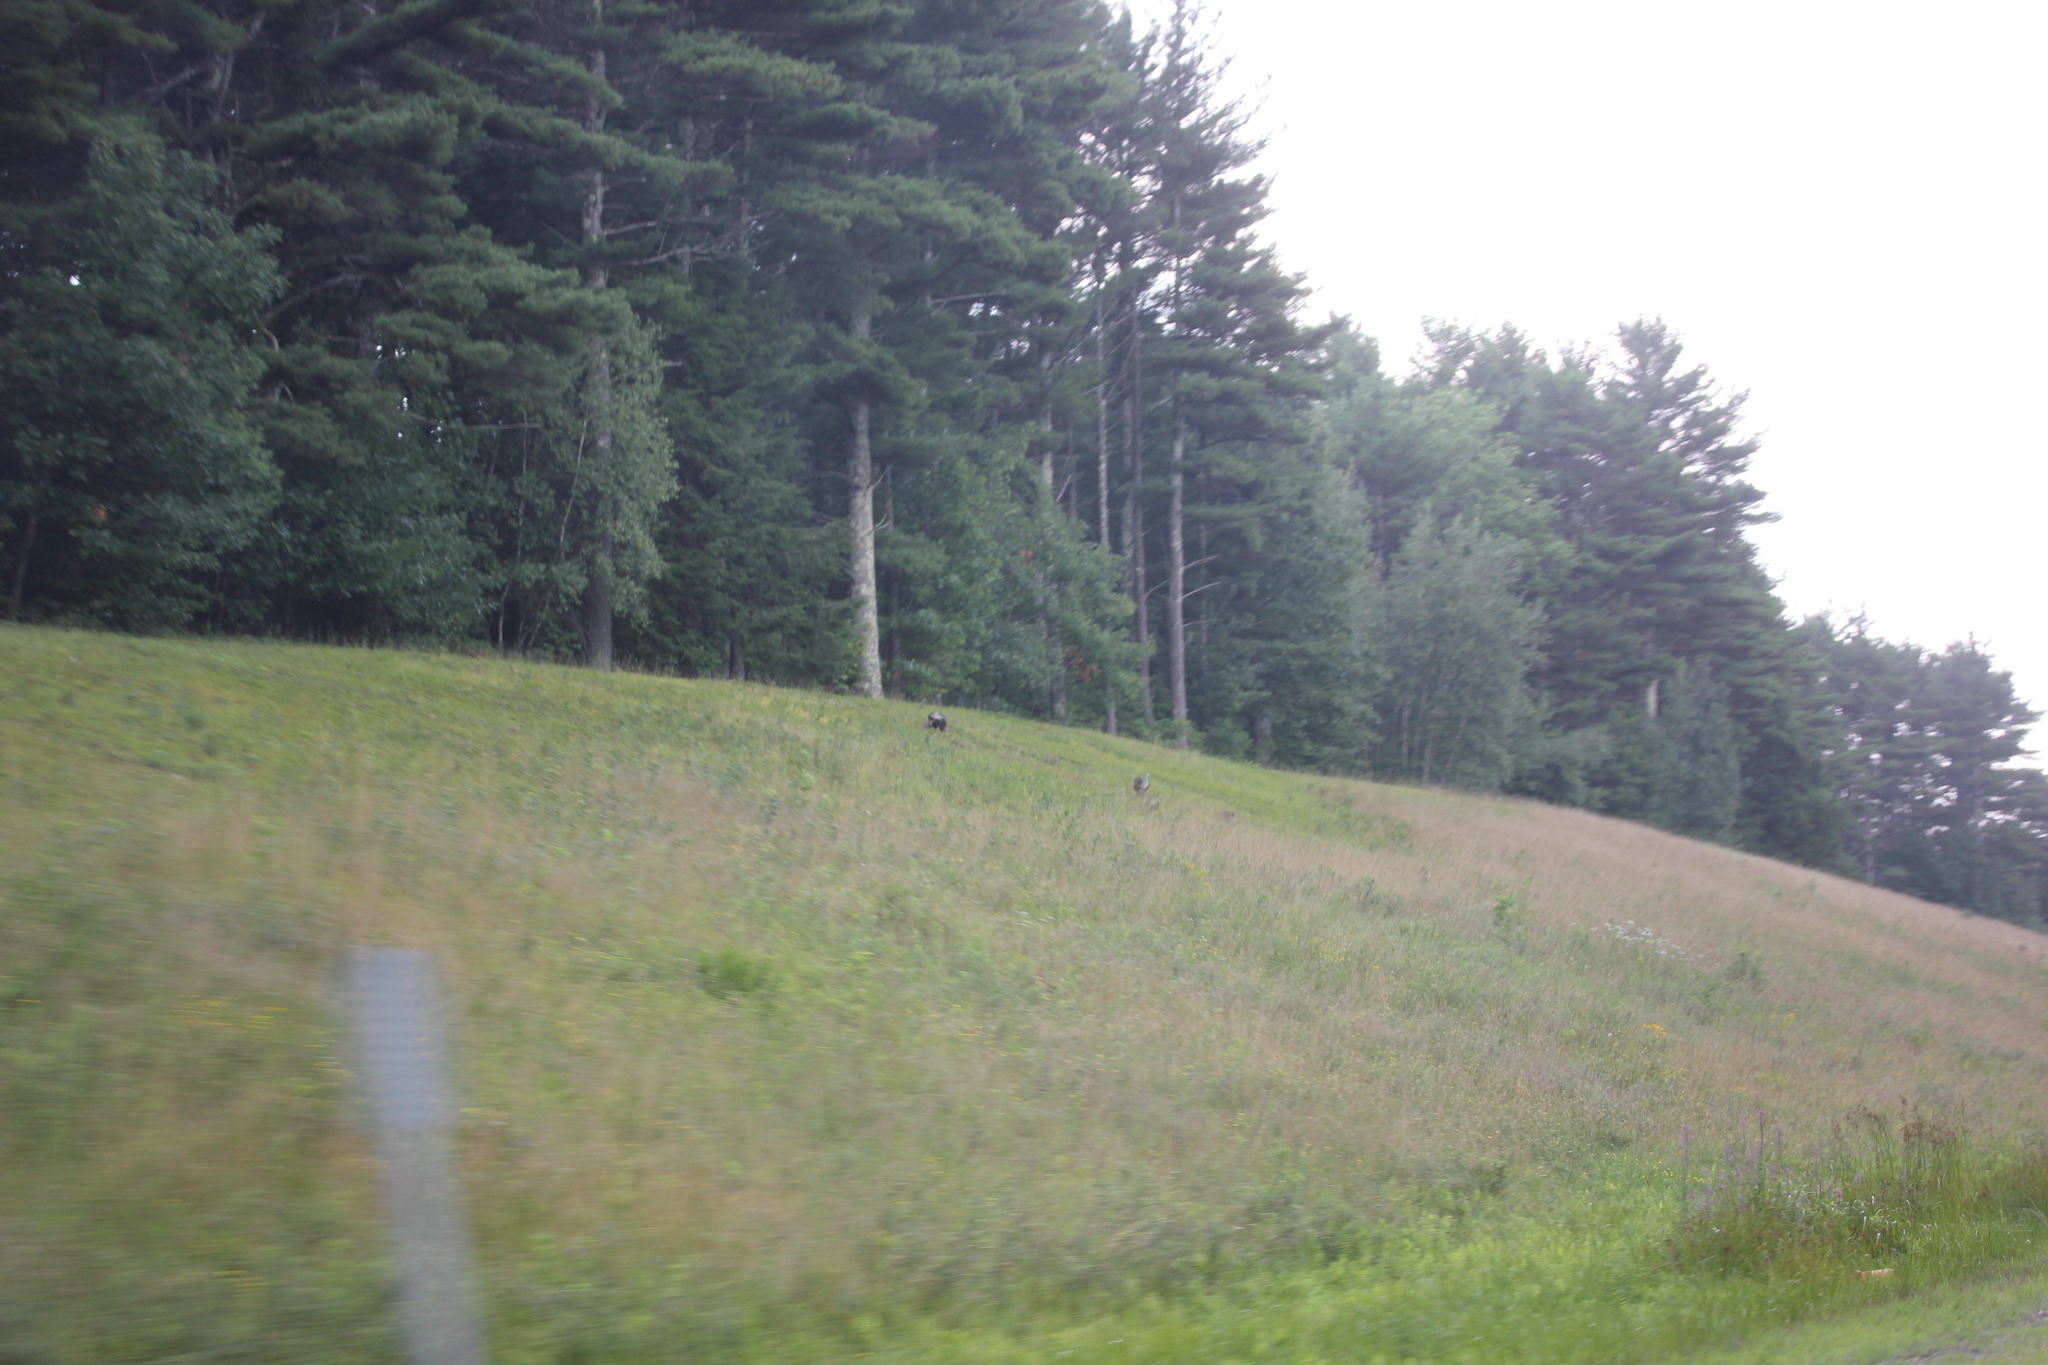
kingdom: Animalia
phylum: Chordata
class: Aves
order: Galliformes
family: Phasianidae
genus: Meleagris
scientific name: Meleagris gallopavo
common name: Wild turkey
